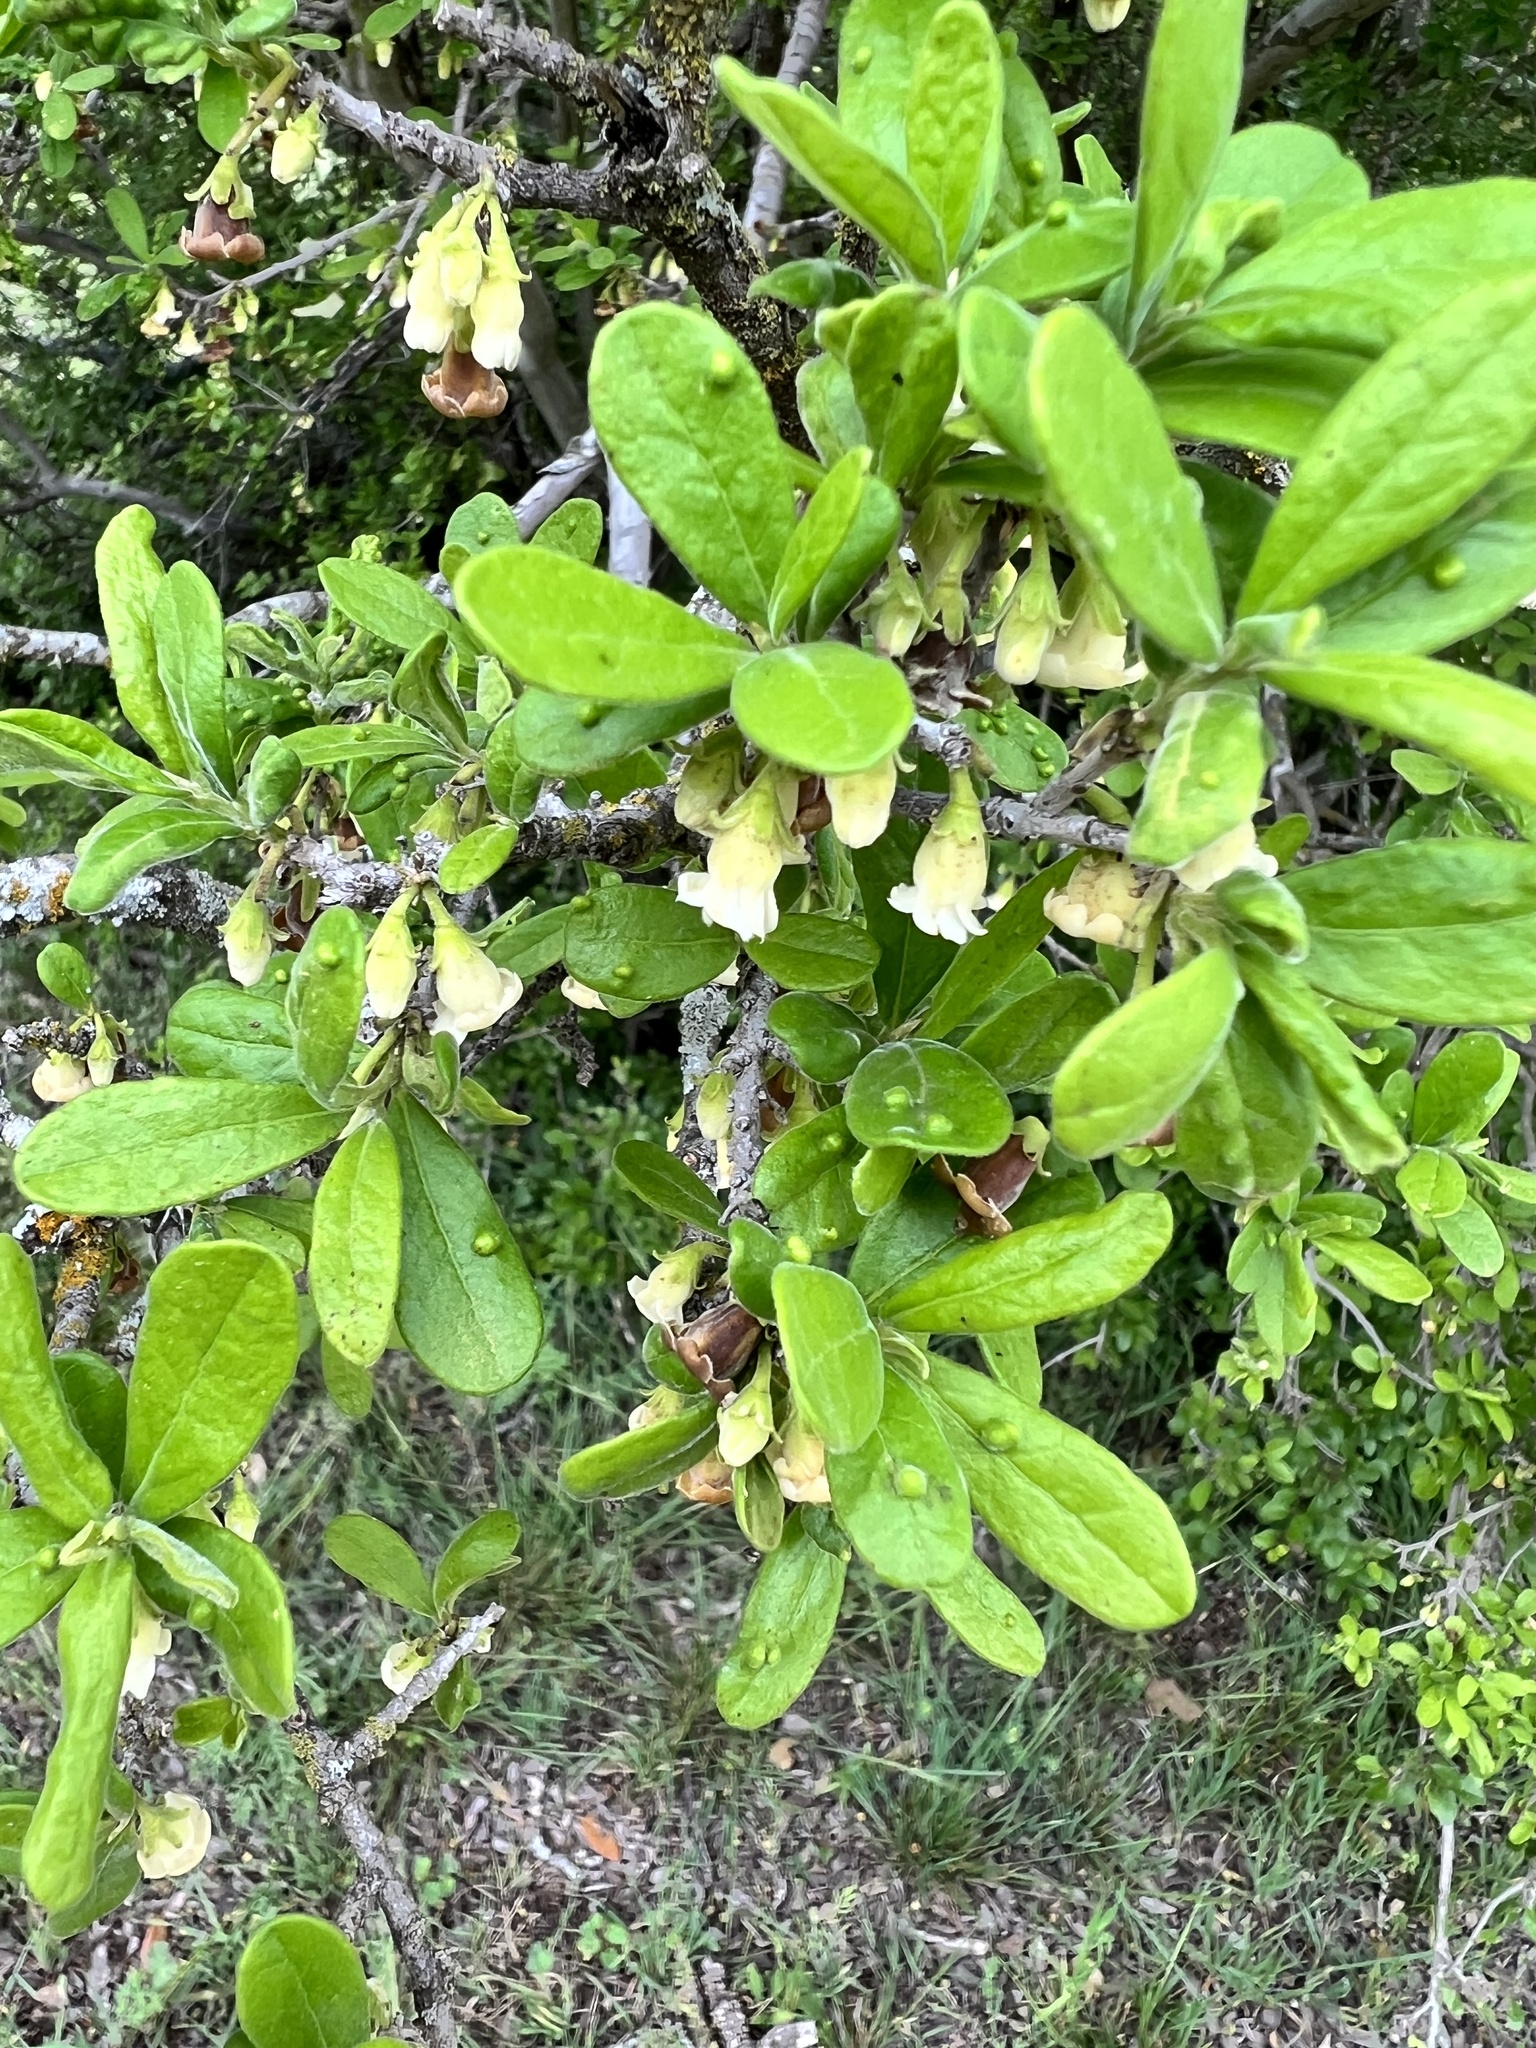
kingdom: Plantae
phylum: Tracheophyta
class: Magnoliopsida
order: Ericales
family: Ebenaceae
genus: Diospyros
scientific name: Diospyros texana
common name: Texas persimmon
